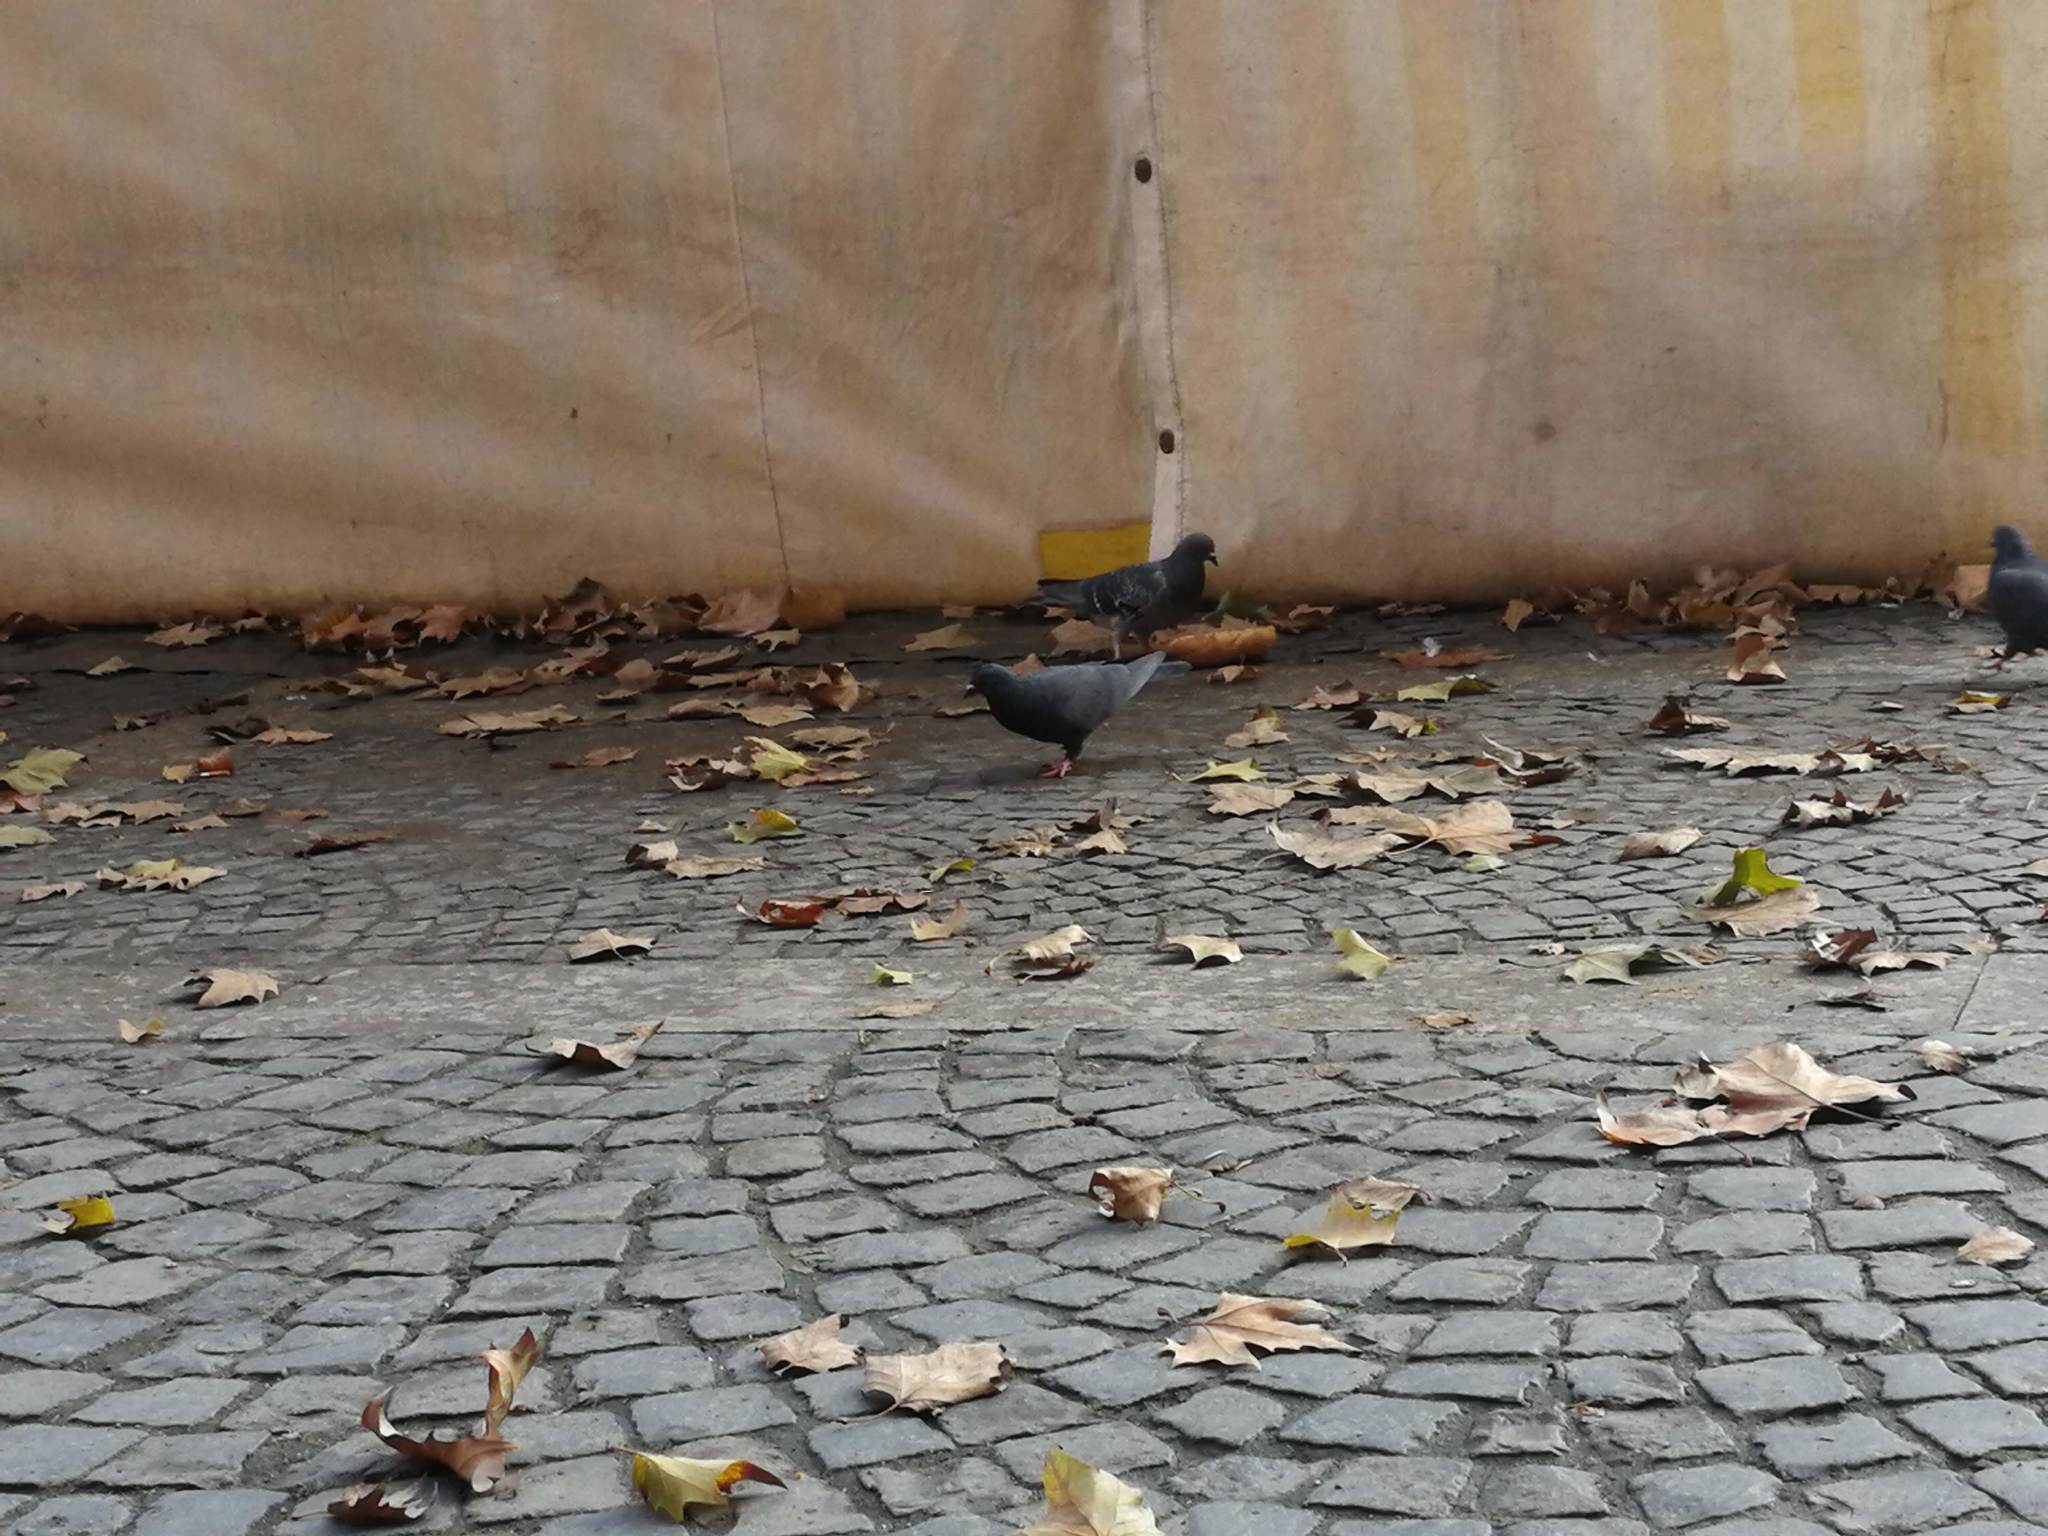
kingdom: Animalia
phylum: Chordata
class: Aves
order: Columbiformes
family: Columbidae
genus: Columba
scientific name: Columba livia
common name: Rock pigeon
